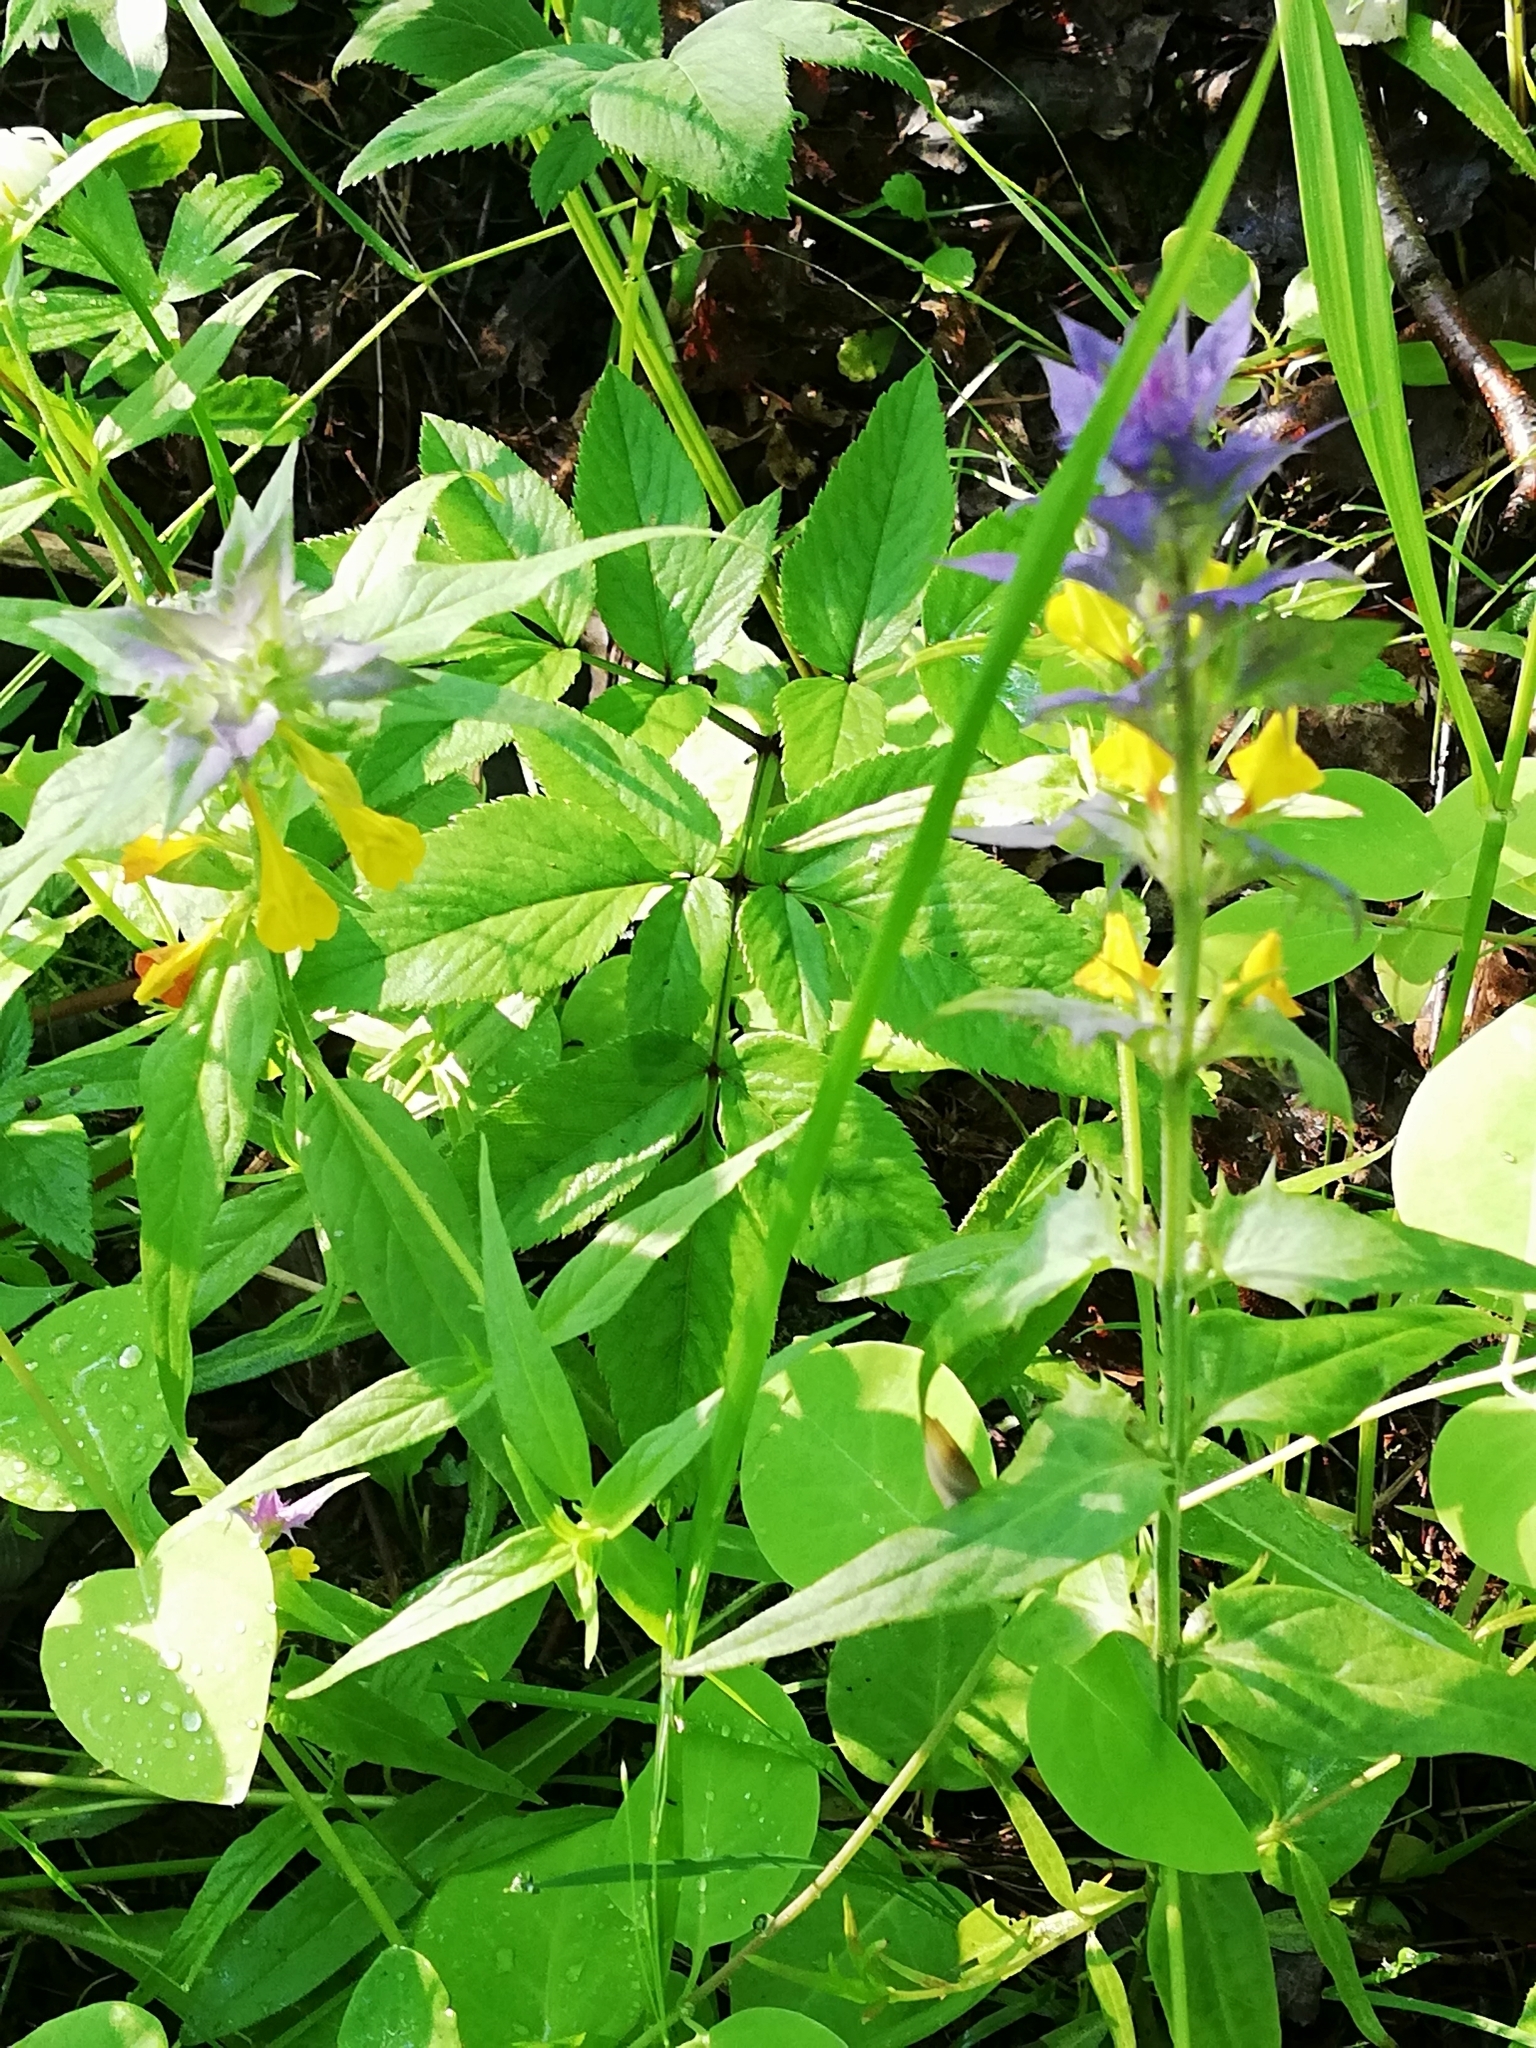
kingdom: Plantae
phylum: Tracheophyta
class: Magnoliopsida
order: Lamiales
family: Orobanchaceae
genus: Melampyrum
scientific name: Melampyrum nemorosum
